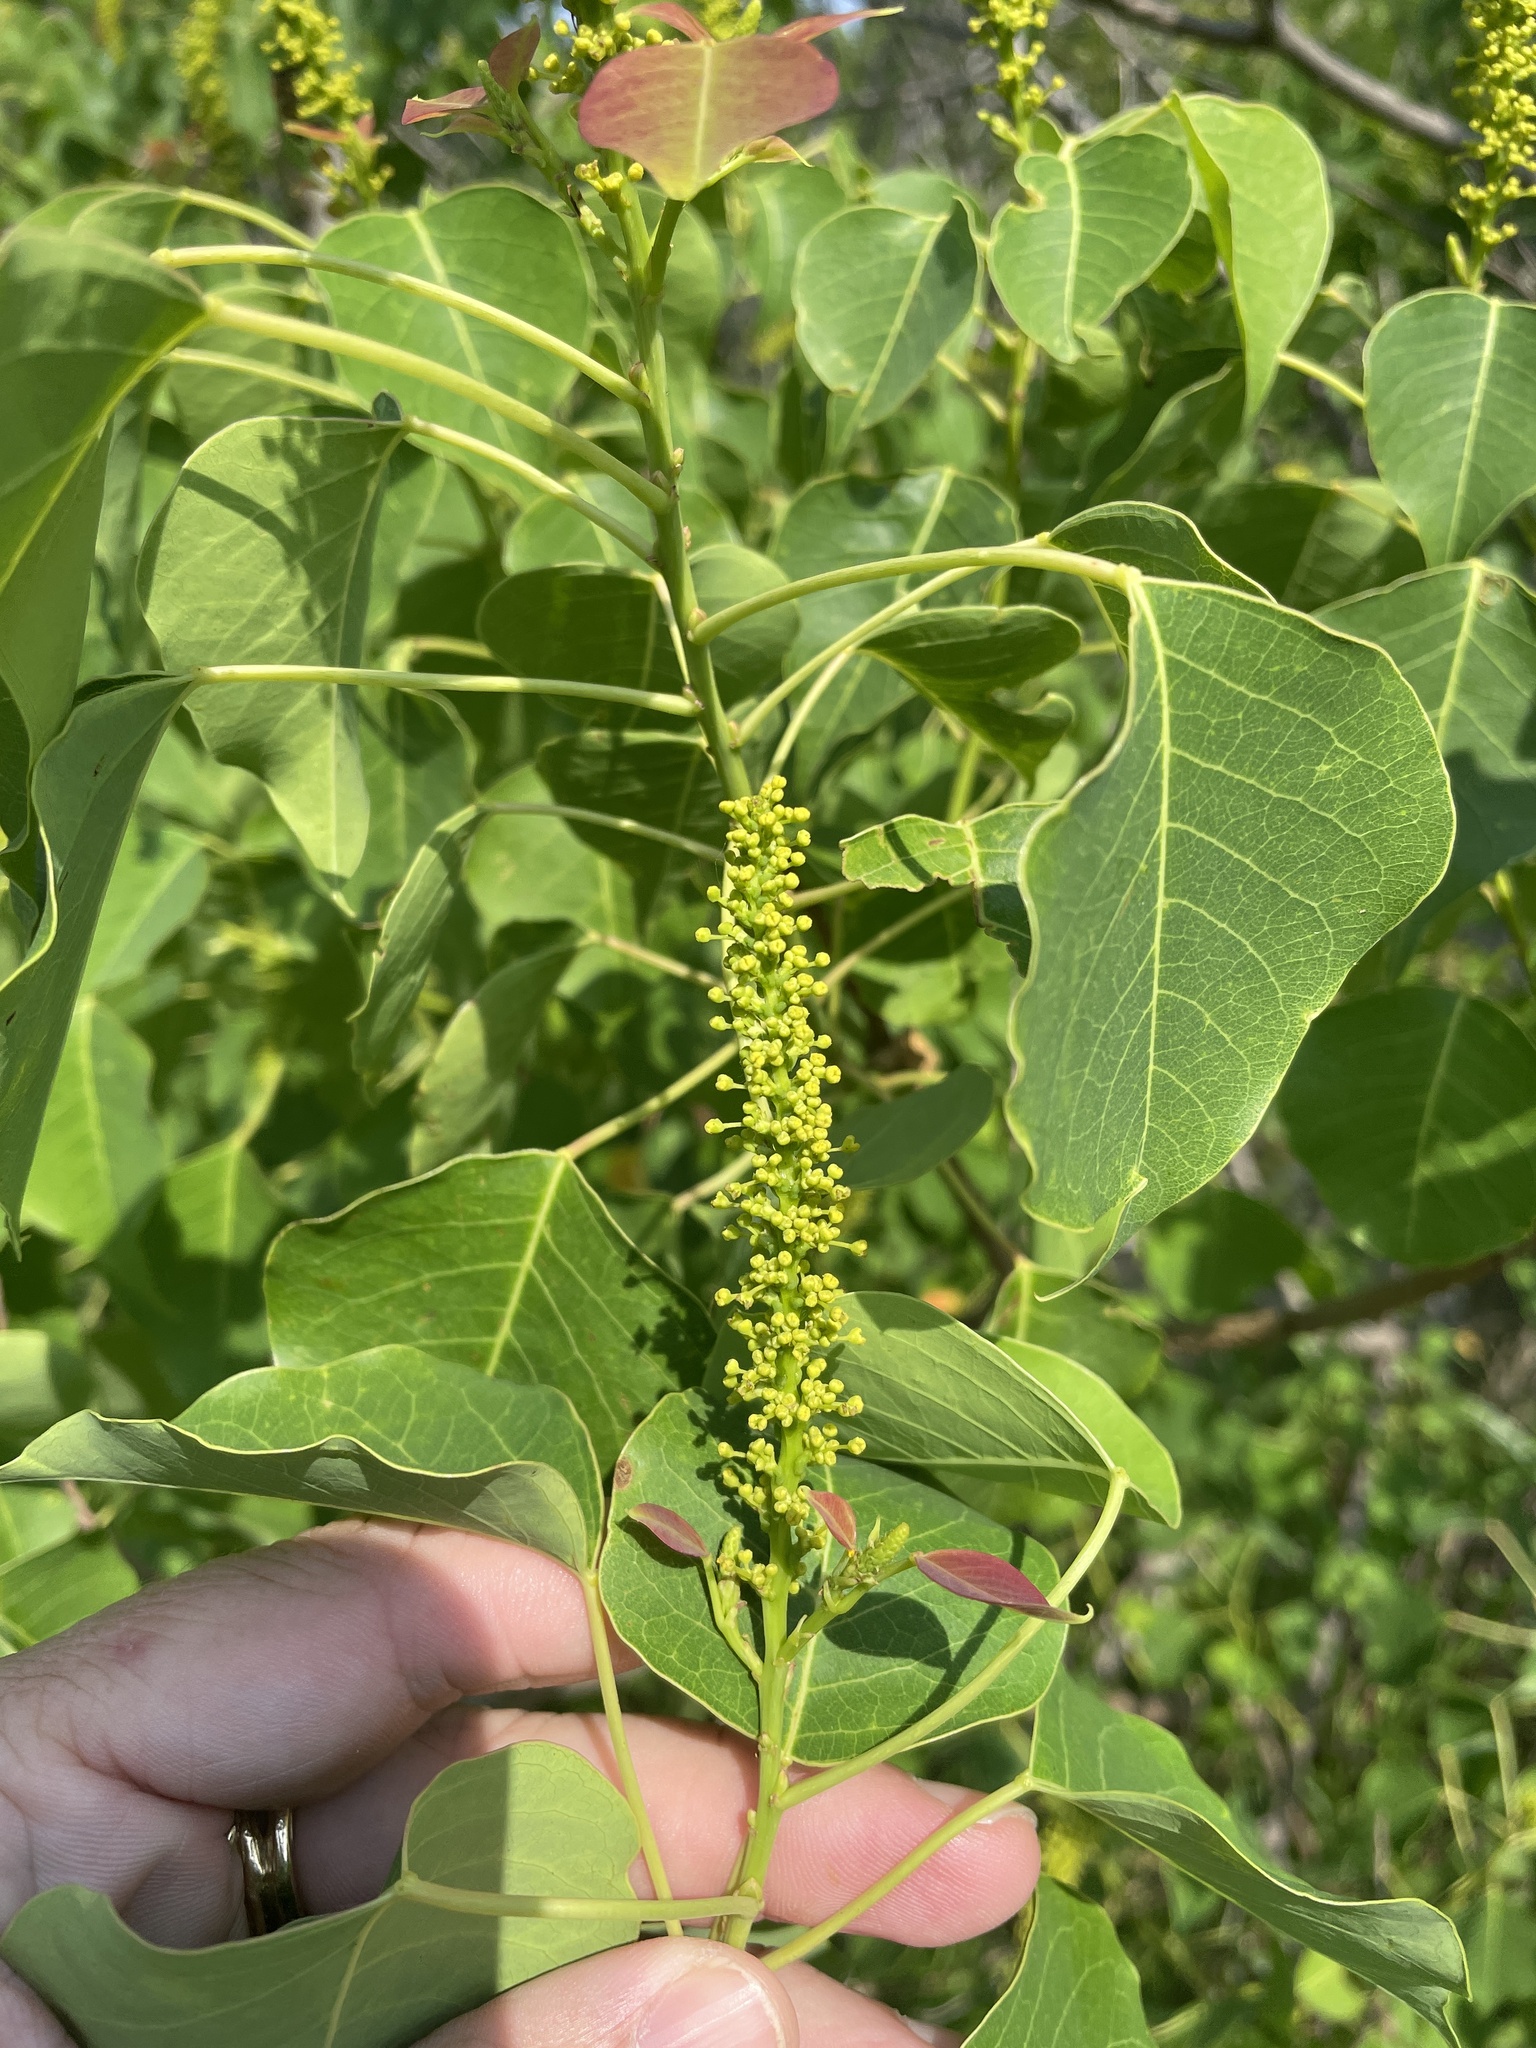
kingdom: Plantae
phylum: Tracheophyta
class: Magnoliopsida
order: Malpighiales
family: Euphorbiaceae
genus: Triadica
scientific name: Triadica sebifera
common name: Chinese tallow
